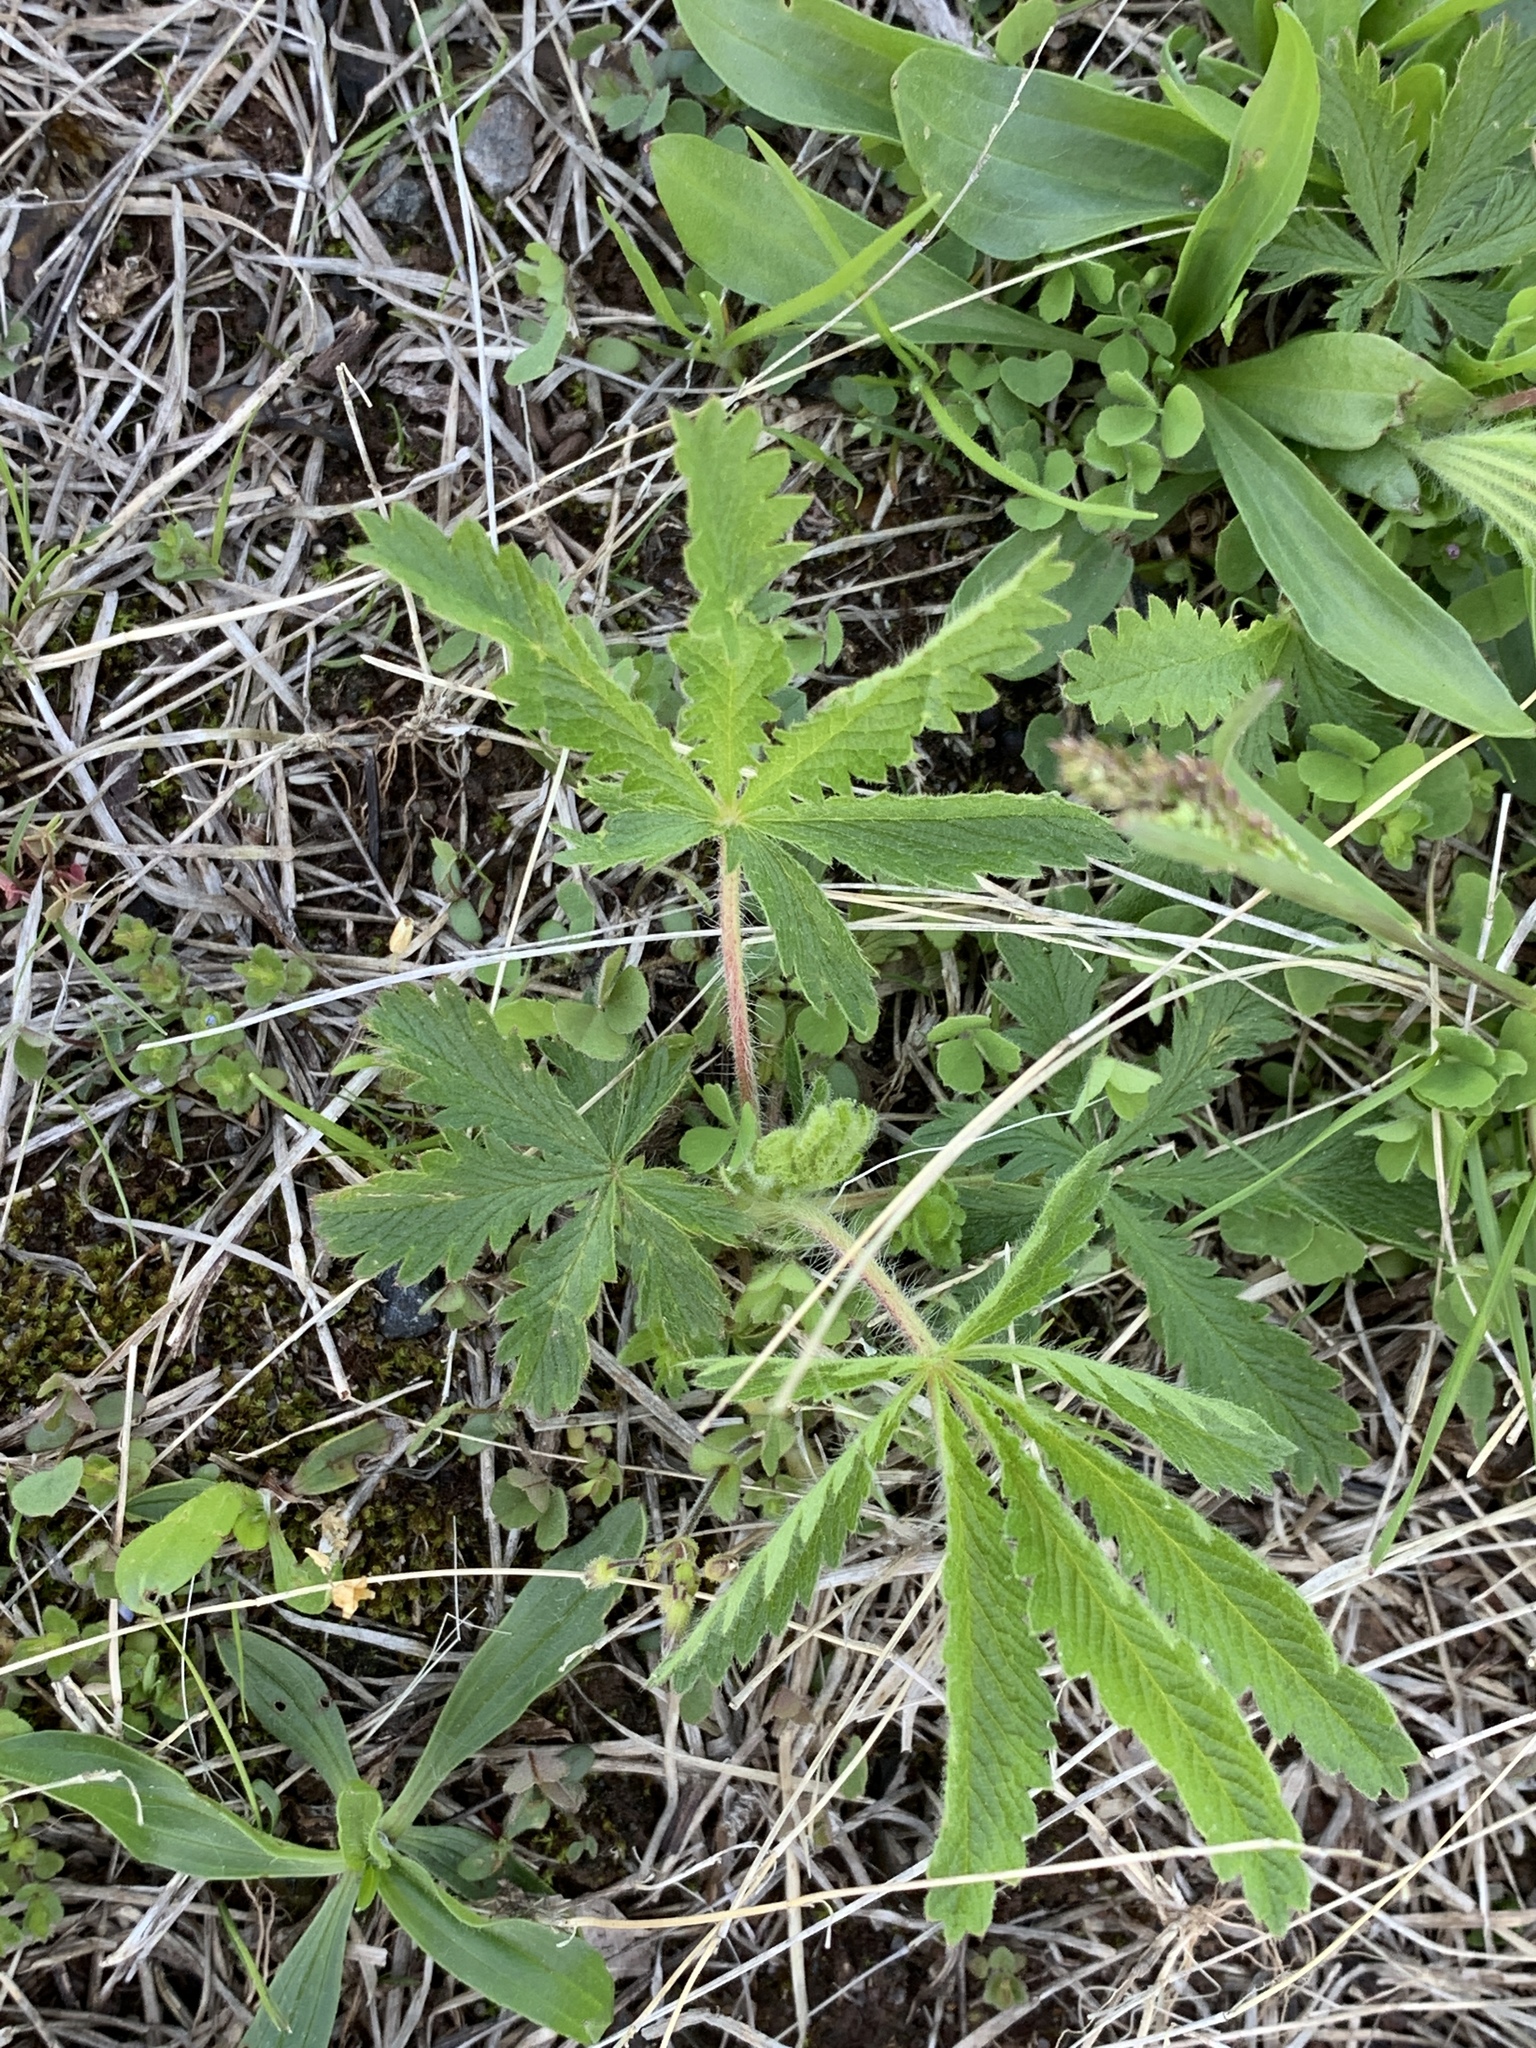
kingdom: Plantae
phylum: Tracheophyta
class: Magnoliopsida
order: Rosales
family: Rosaceae
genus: Potentilla
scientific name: Potentilla recta
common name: Sulphur cinquefoil
